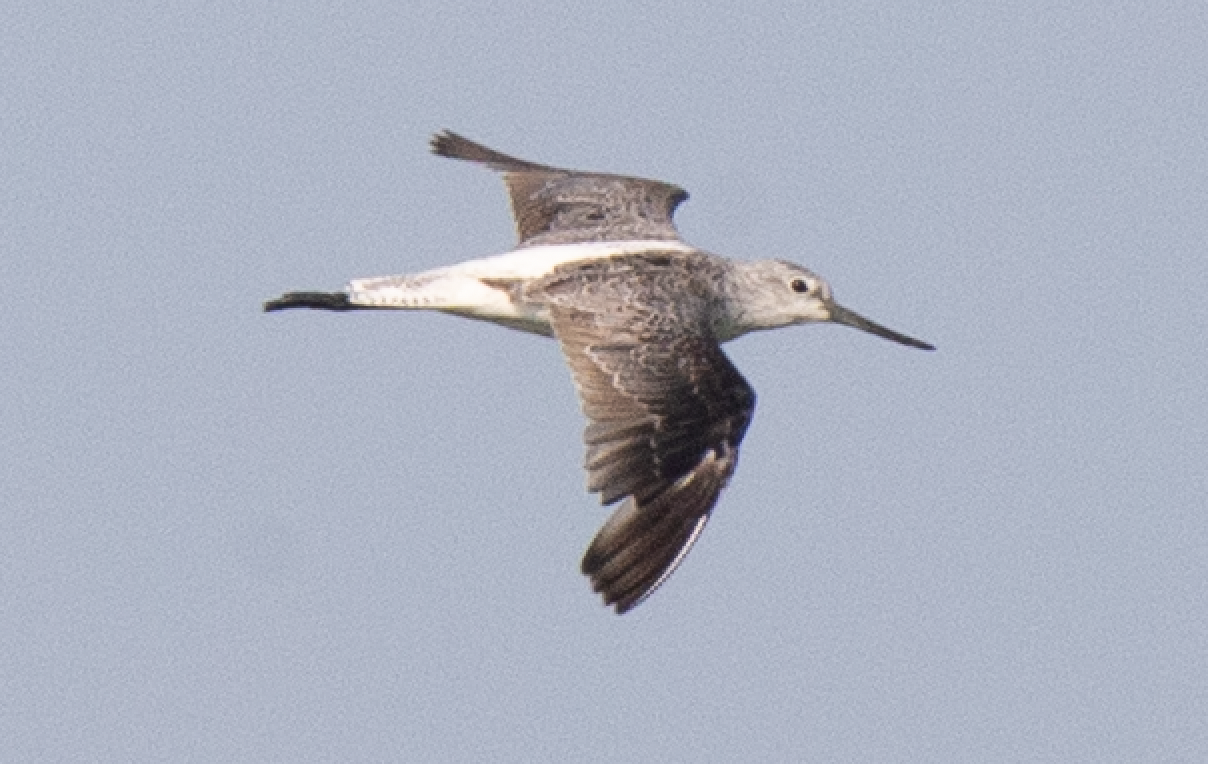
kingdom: Animalia
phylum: Chordata
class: Aves
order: Charadriiformes
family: Scolopacidae
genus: Tringa
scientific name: Tringa nebularia
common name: Common greenshank
